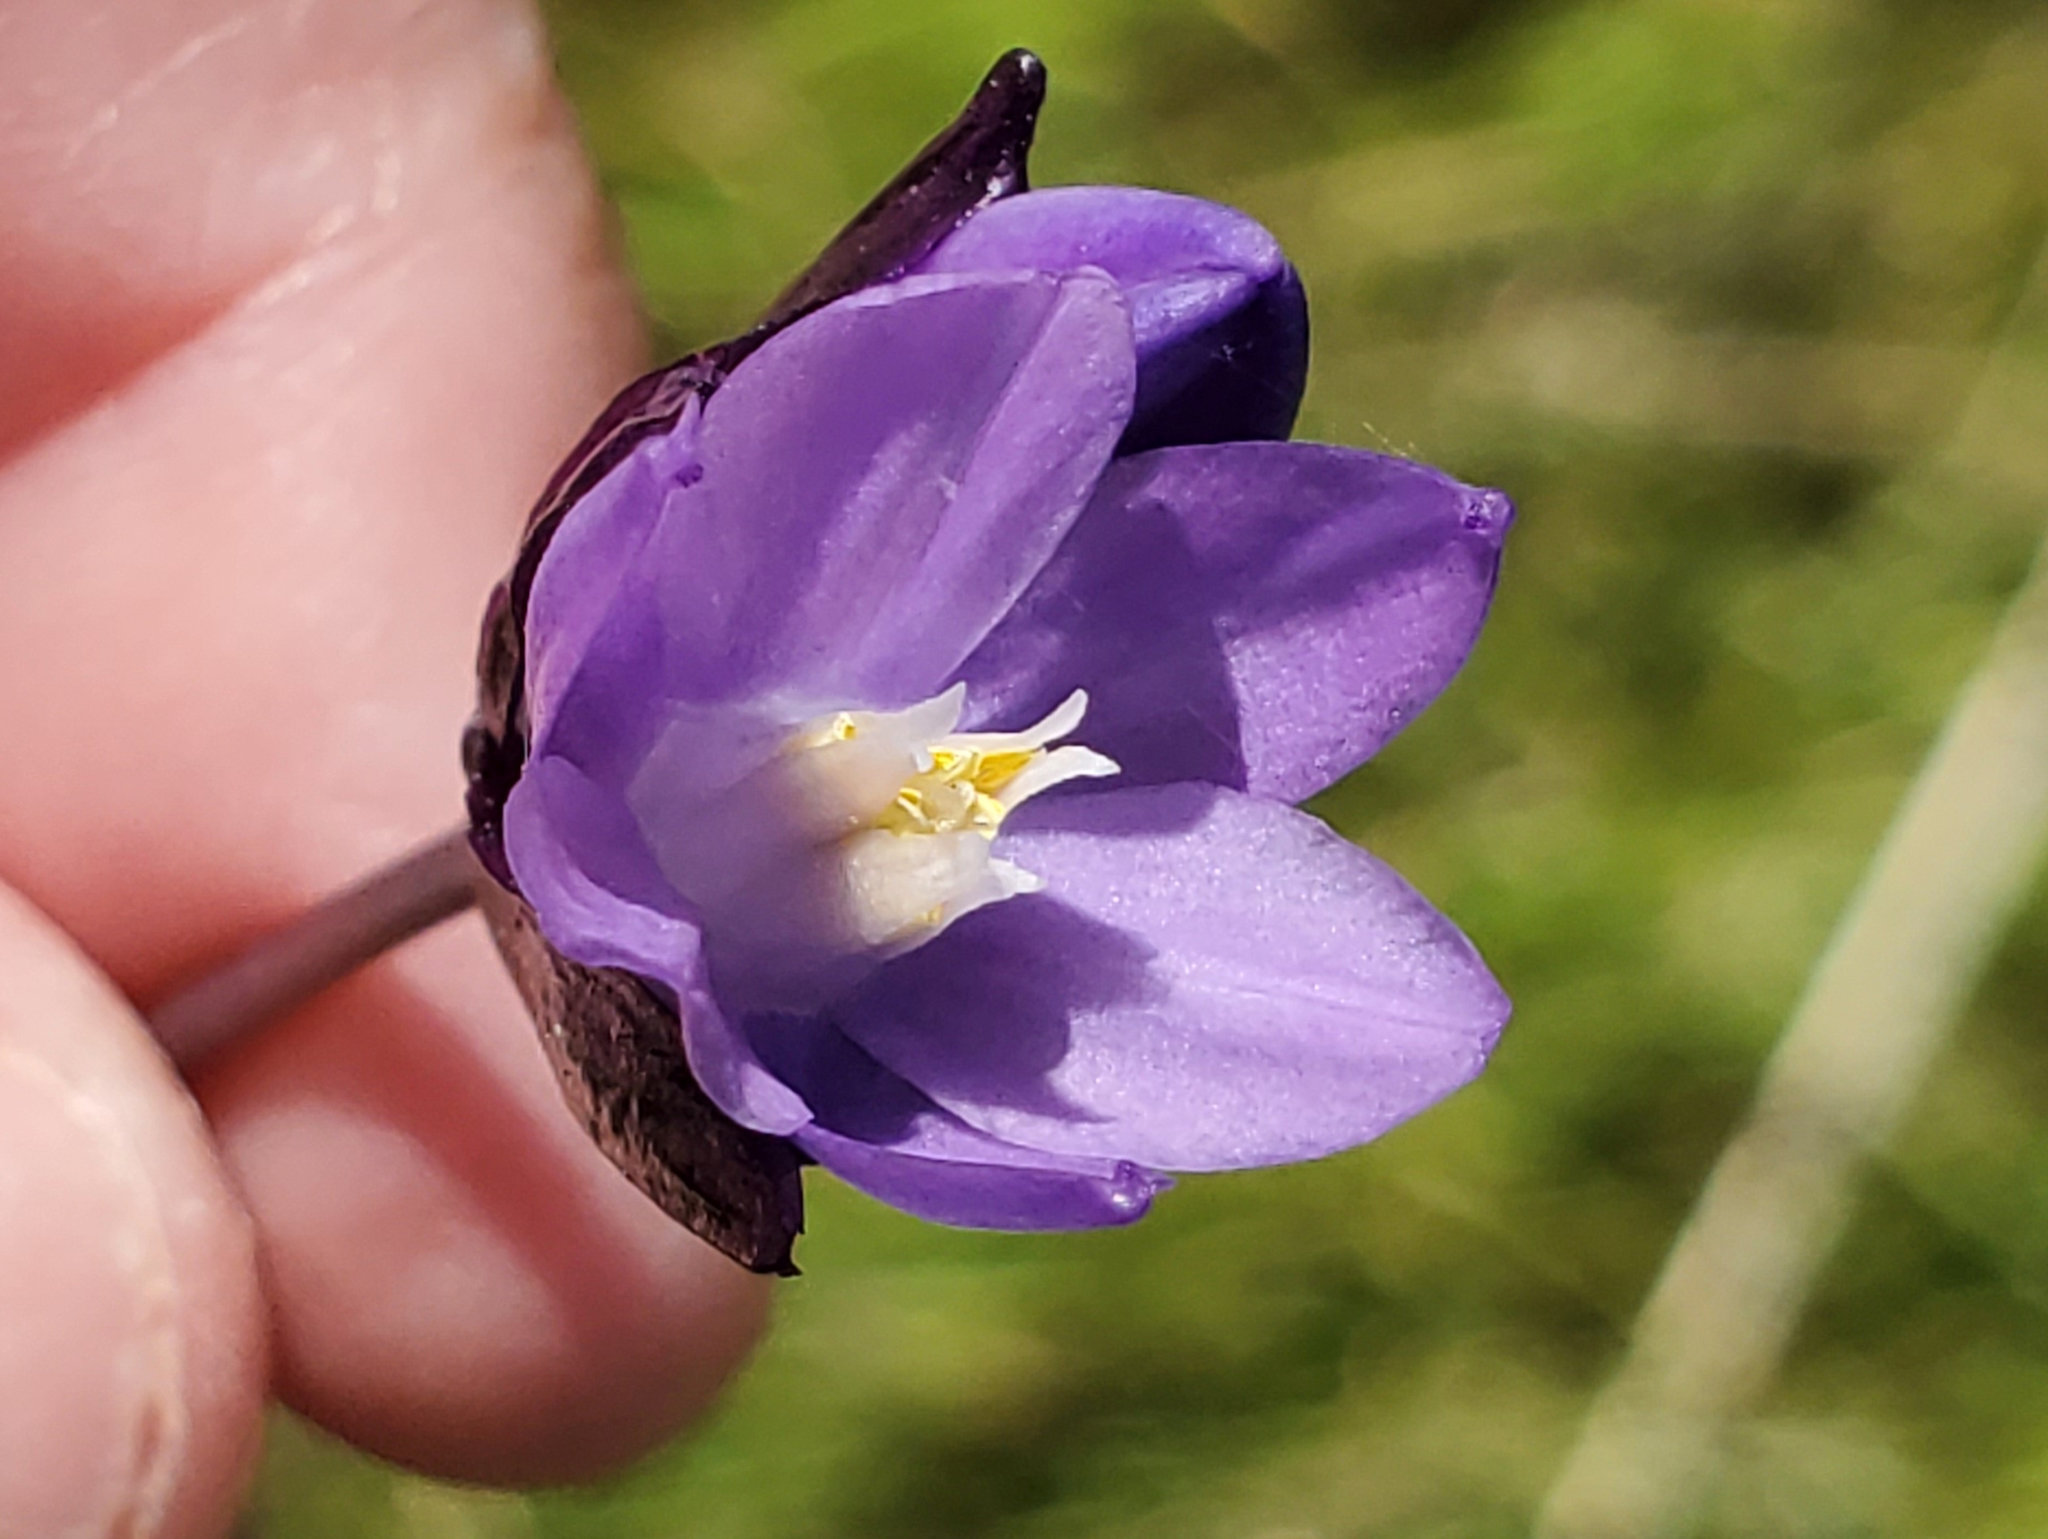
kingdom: Plantae
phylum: Tracheophyta
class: Liliopsida
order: Asparagales
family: Asparagaceae
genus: Dipterostemon
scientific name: Dipterostemon capitatus
